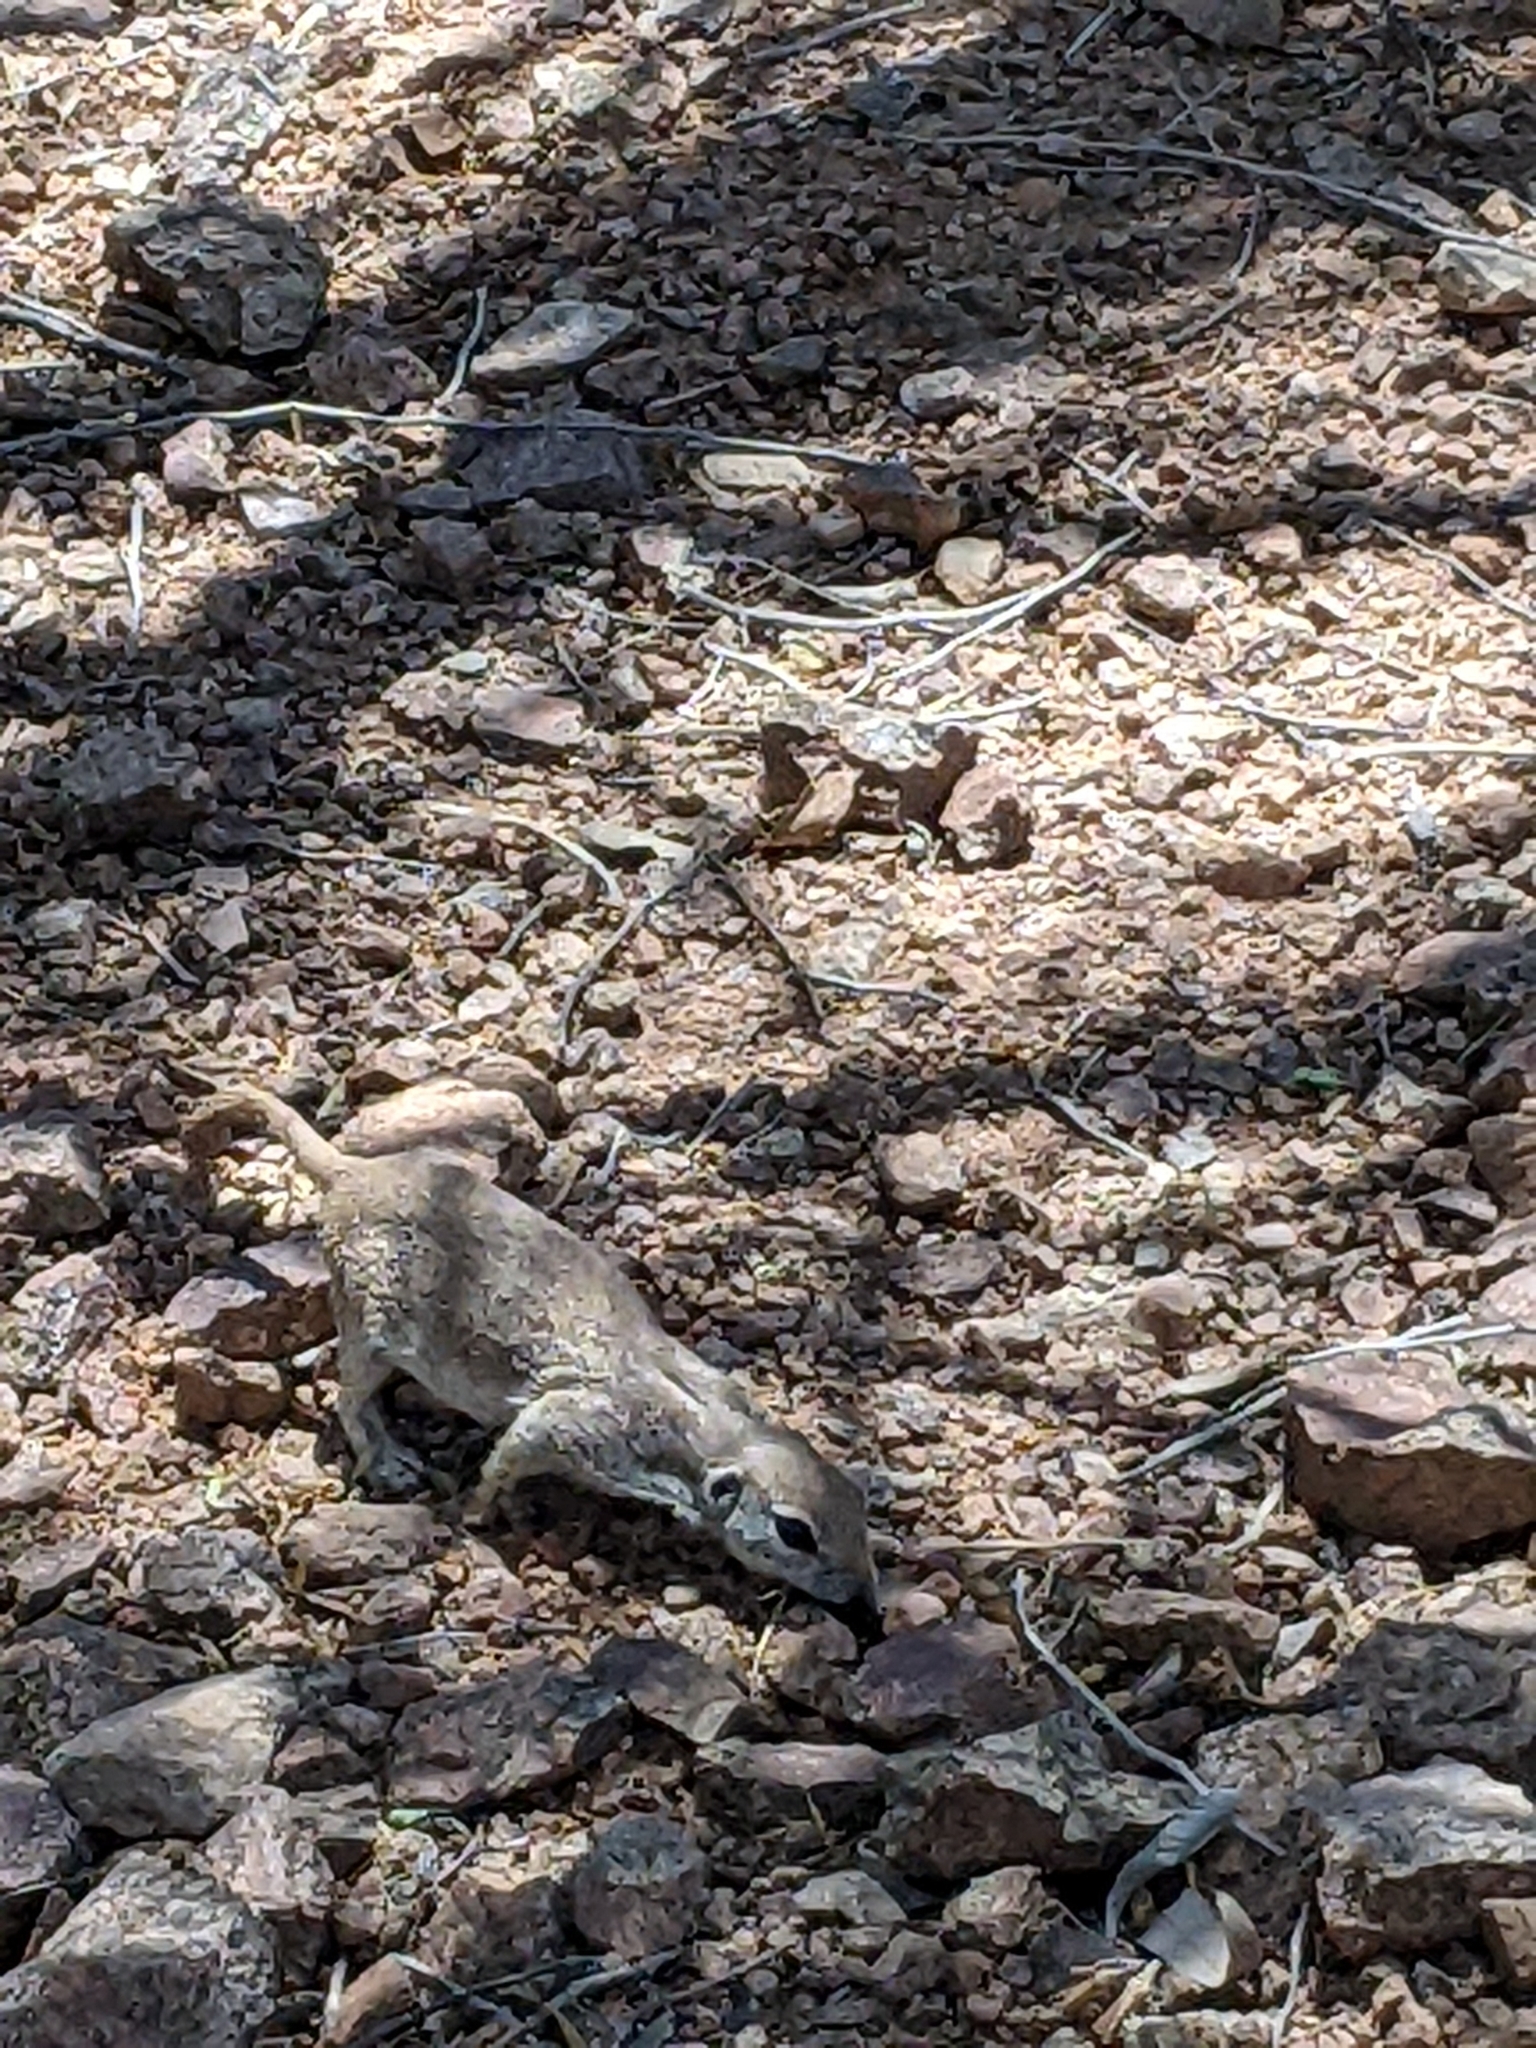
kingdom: Animalia
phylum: Chordata
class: Mammalia
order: Rodentia
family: Sciuridae
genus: Xerospermophilus
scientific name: Xerospermophilus tereticaudus
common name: Round-tailed ground squirrel
